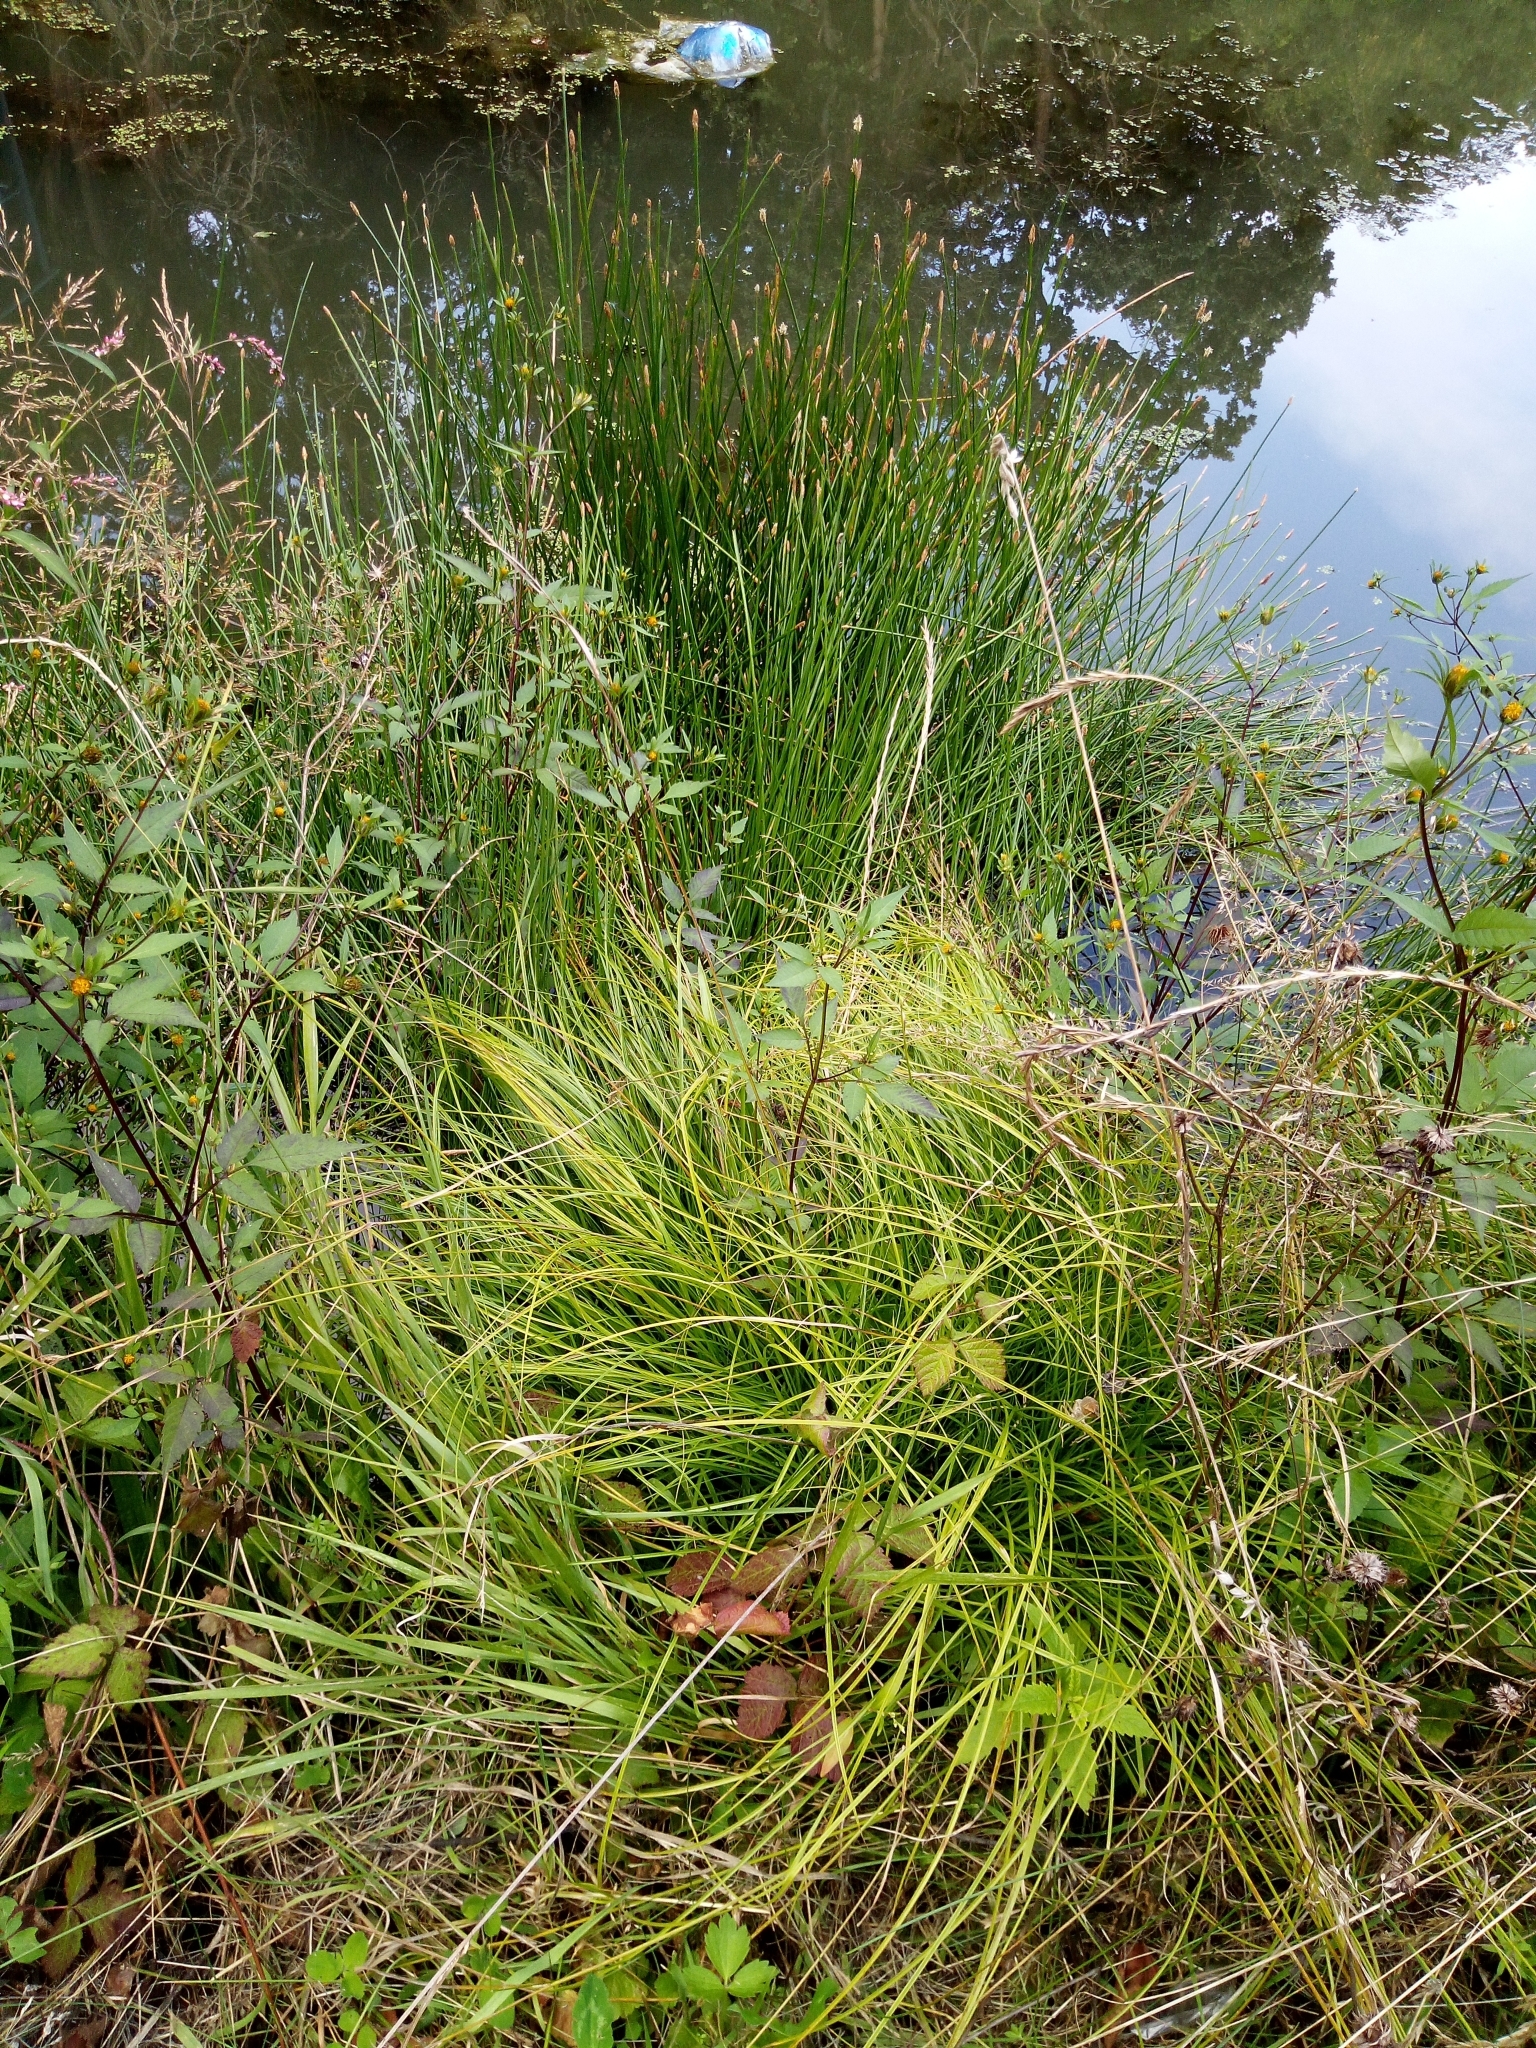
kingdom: Plantae
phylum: Tracheophyta
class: Liliopsida
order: Poales
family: Cyperaceae
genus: Carex
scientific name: Carex remota
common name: Remote sedge
